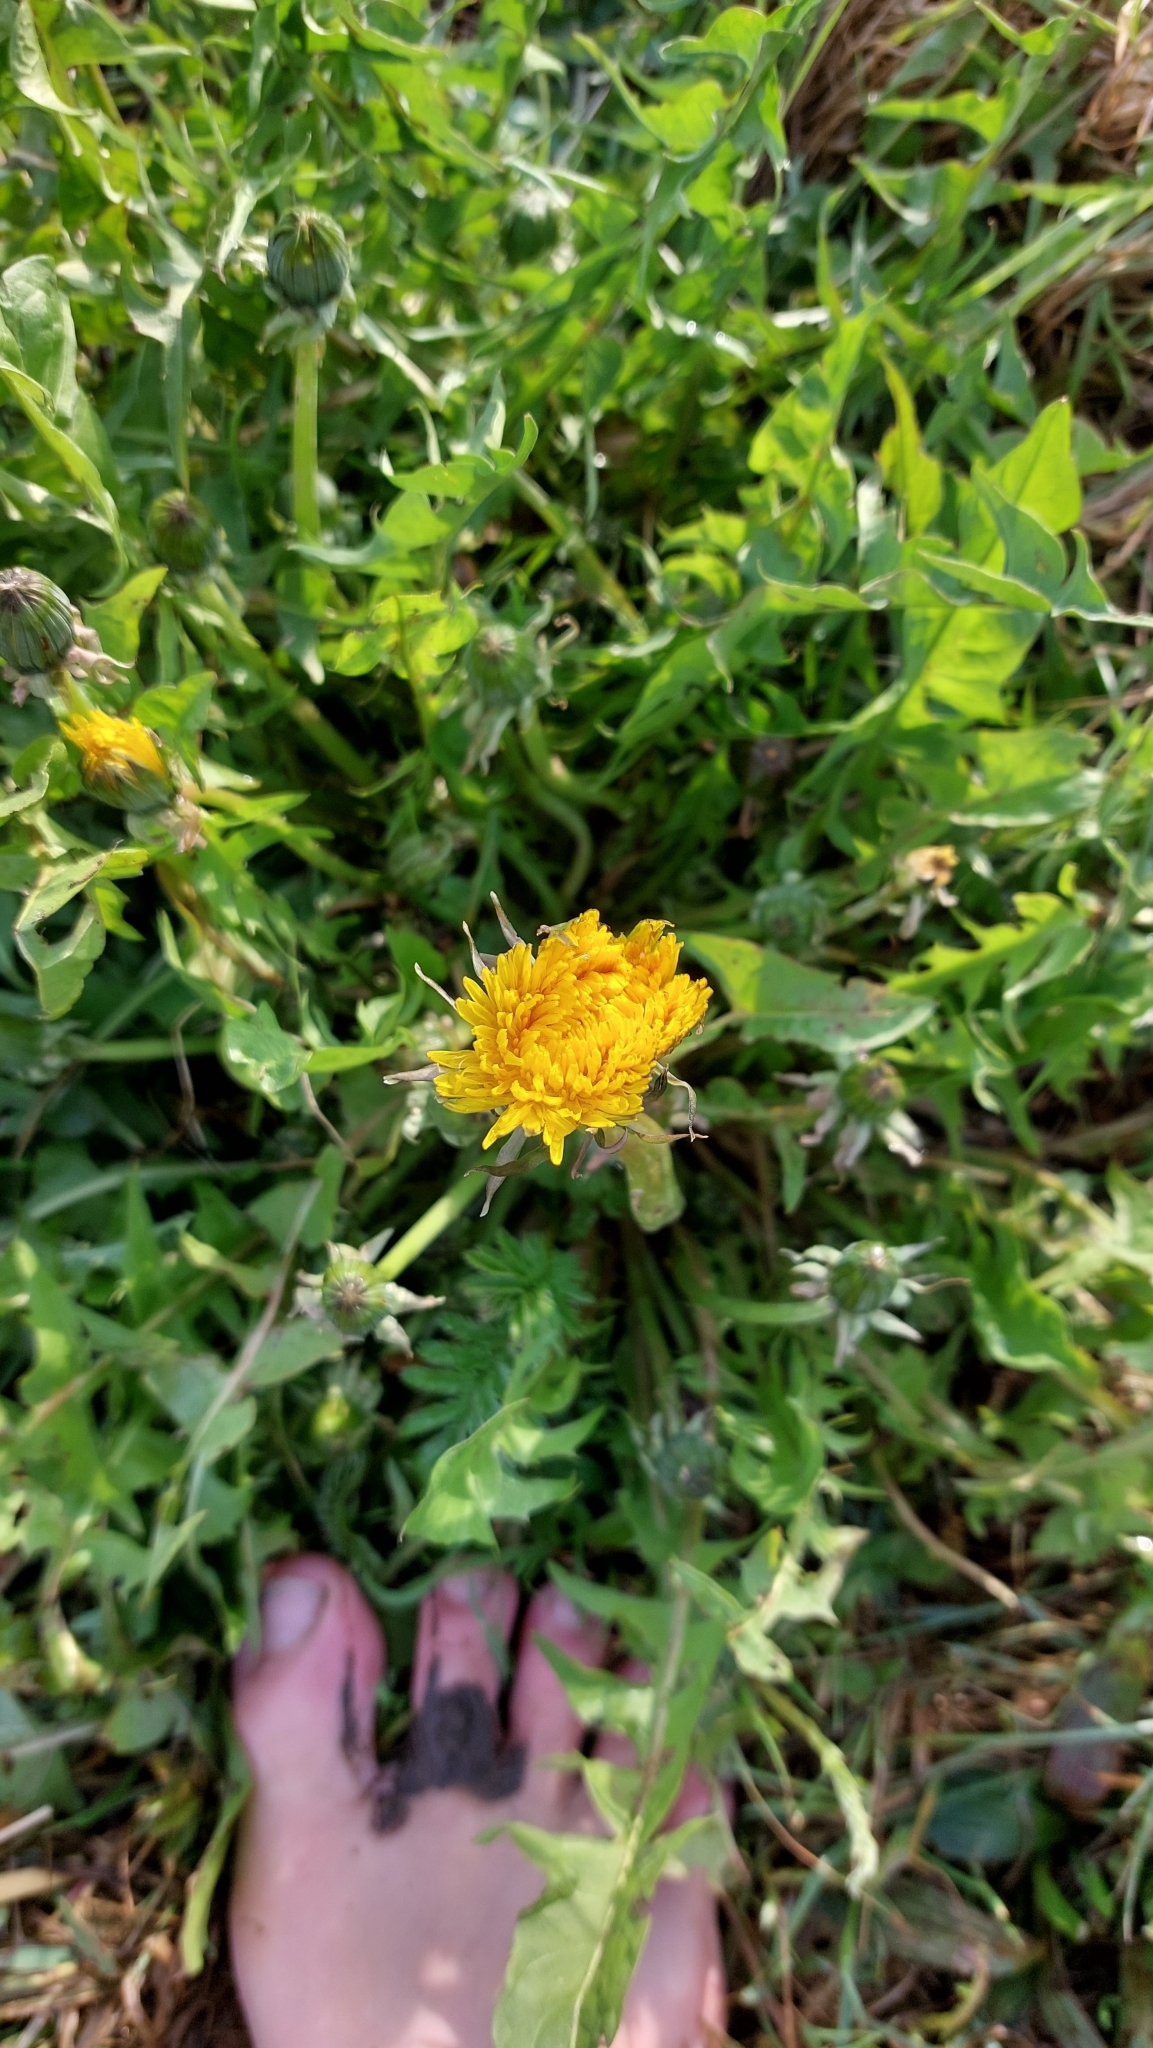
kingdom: Plantae
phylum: Tracheophyta
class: Magnoliopsida
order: Asterales
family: Asteraceae
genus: Taraxacum
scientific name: Taraxacum
